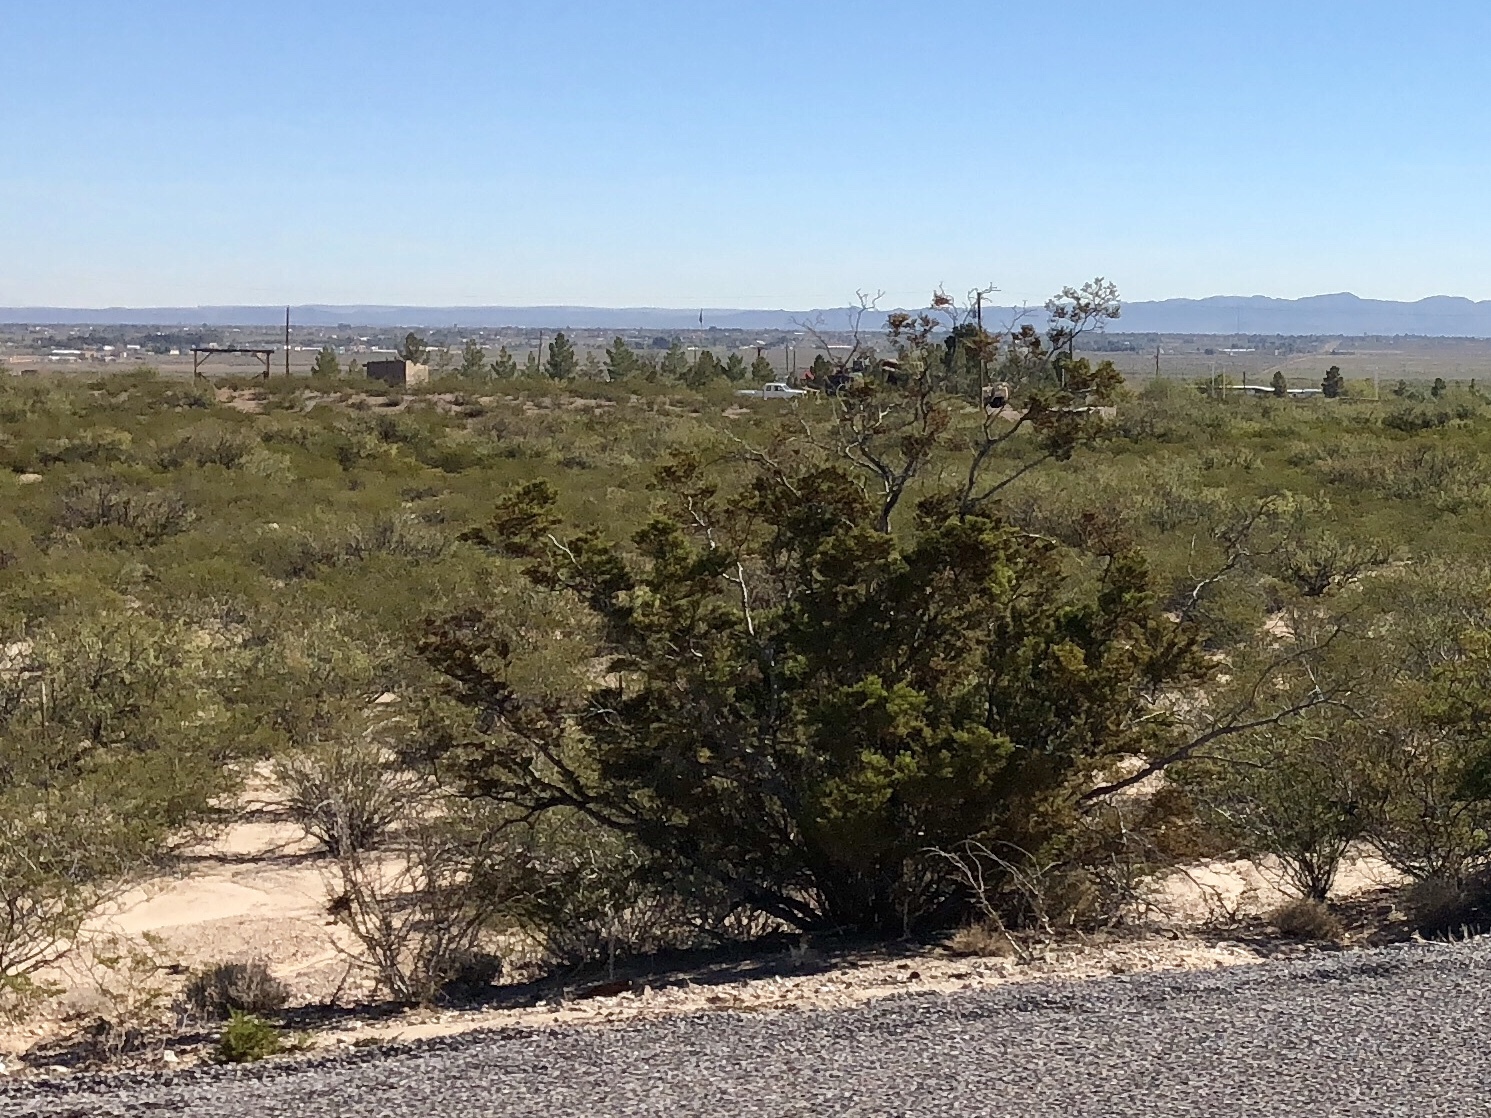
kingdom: Plantae
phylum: Tracheophyta
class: Magnoliopsida
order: Zygophyllales
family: Zygophyllaceae
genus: Larrea
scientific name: Larrea tridentata
